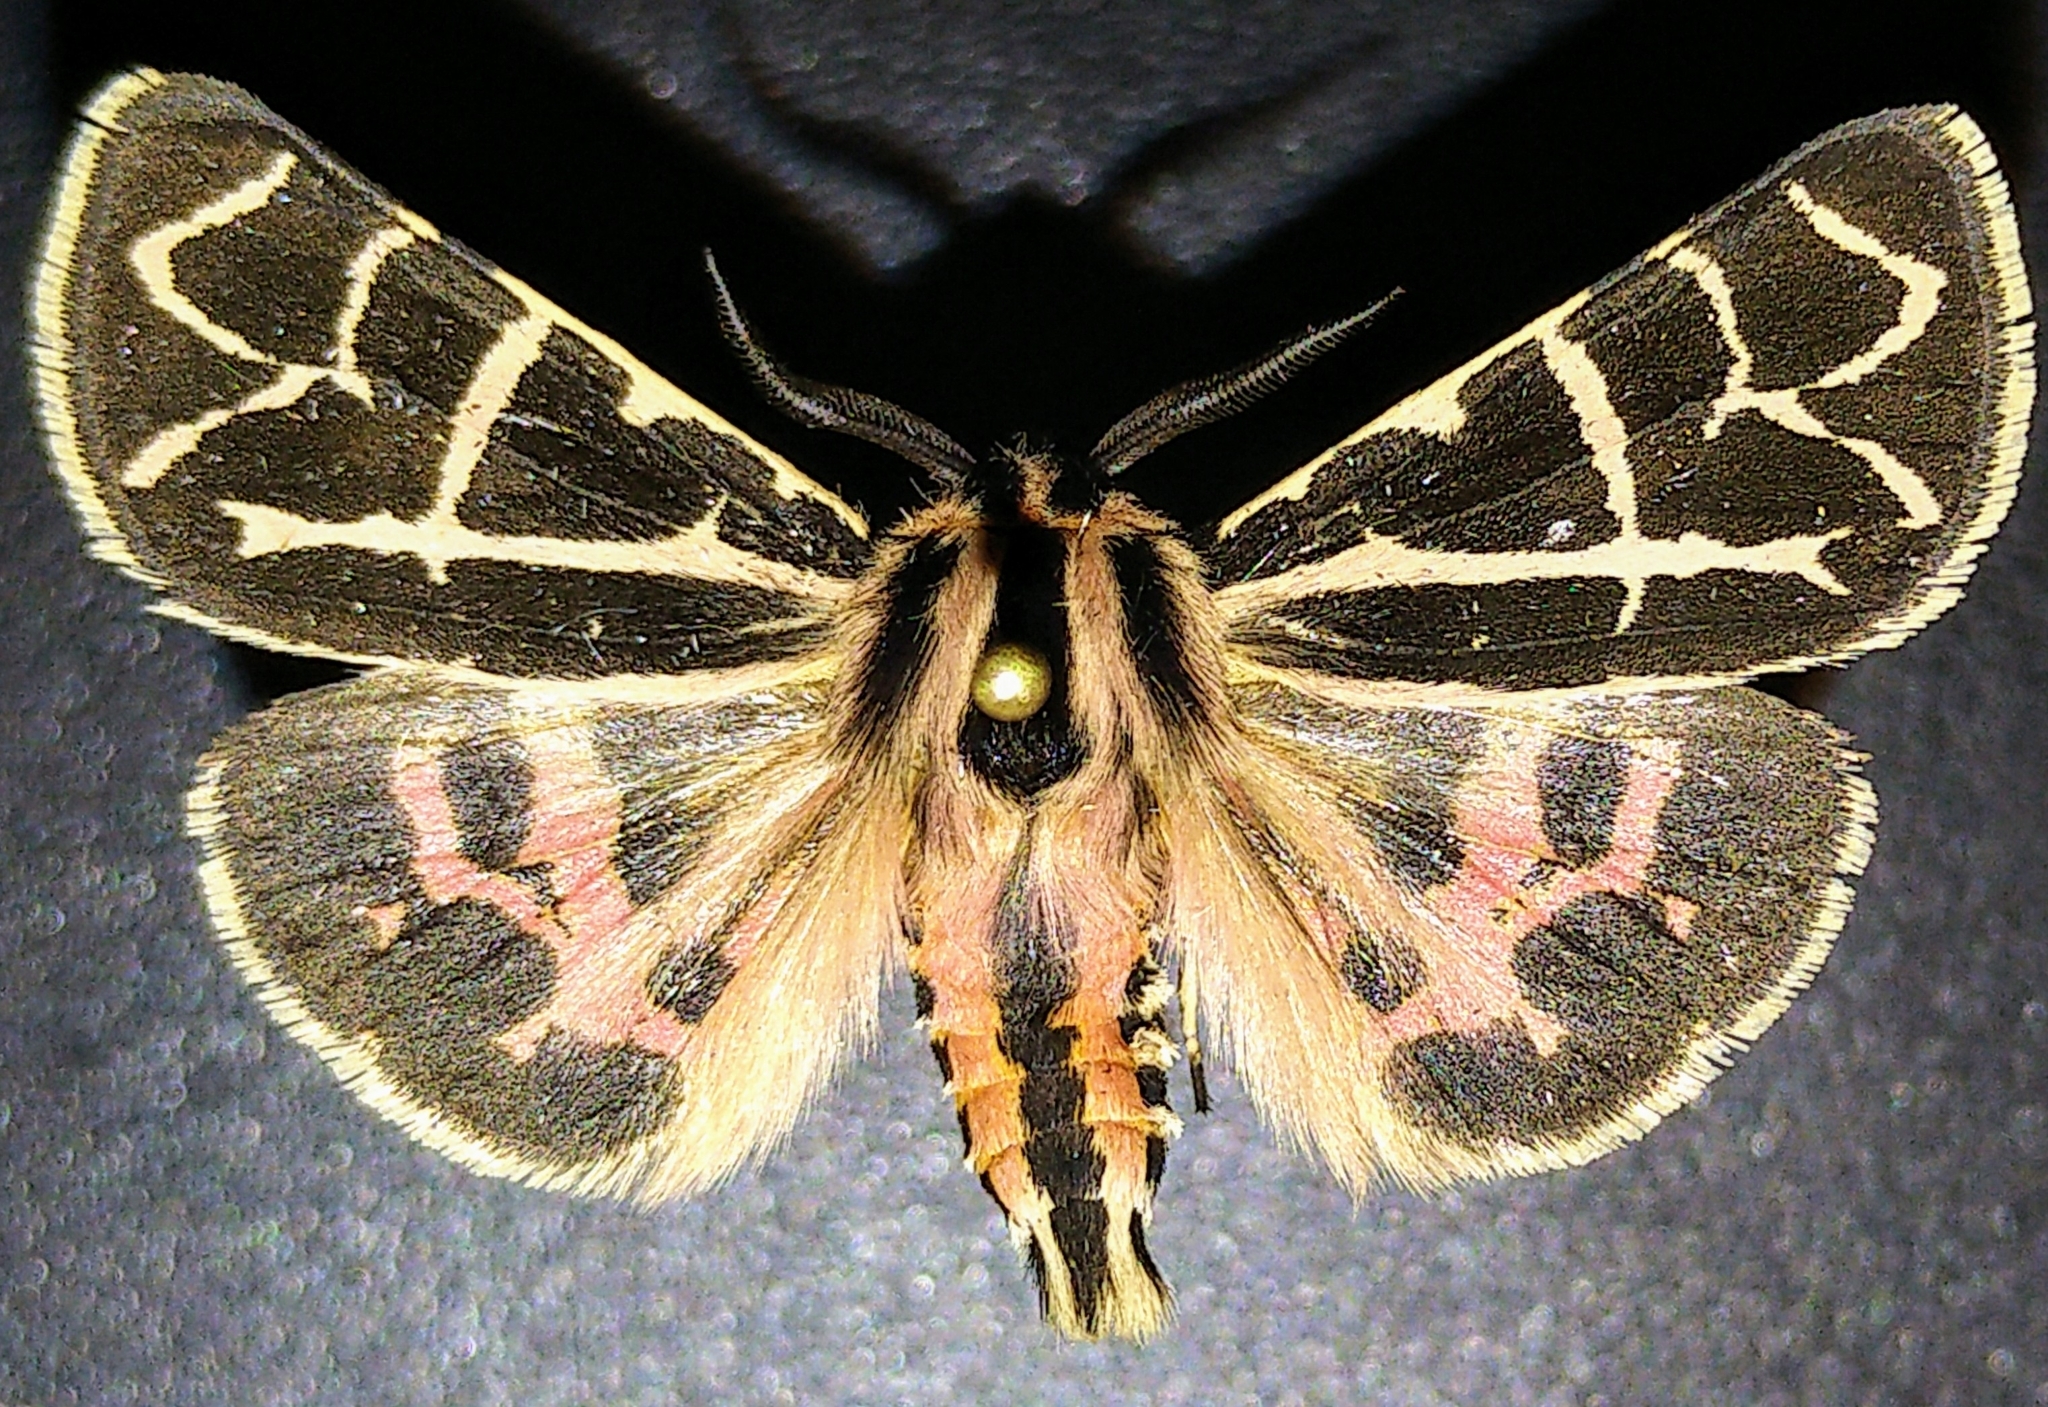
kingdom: Animalia
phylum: Arthropoda
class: Insecta
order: Lepidoptera
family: Erebidae
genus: Apantesis
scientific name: Apantesis
